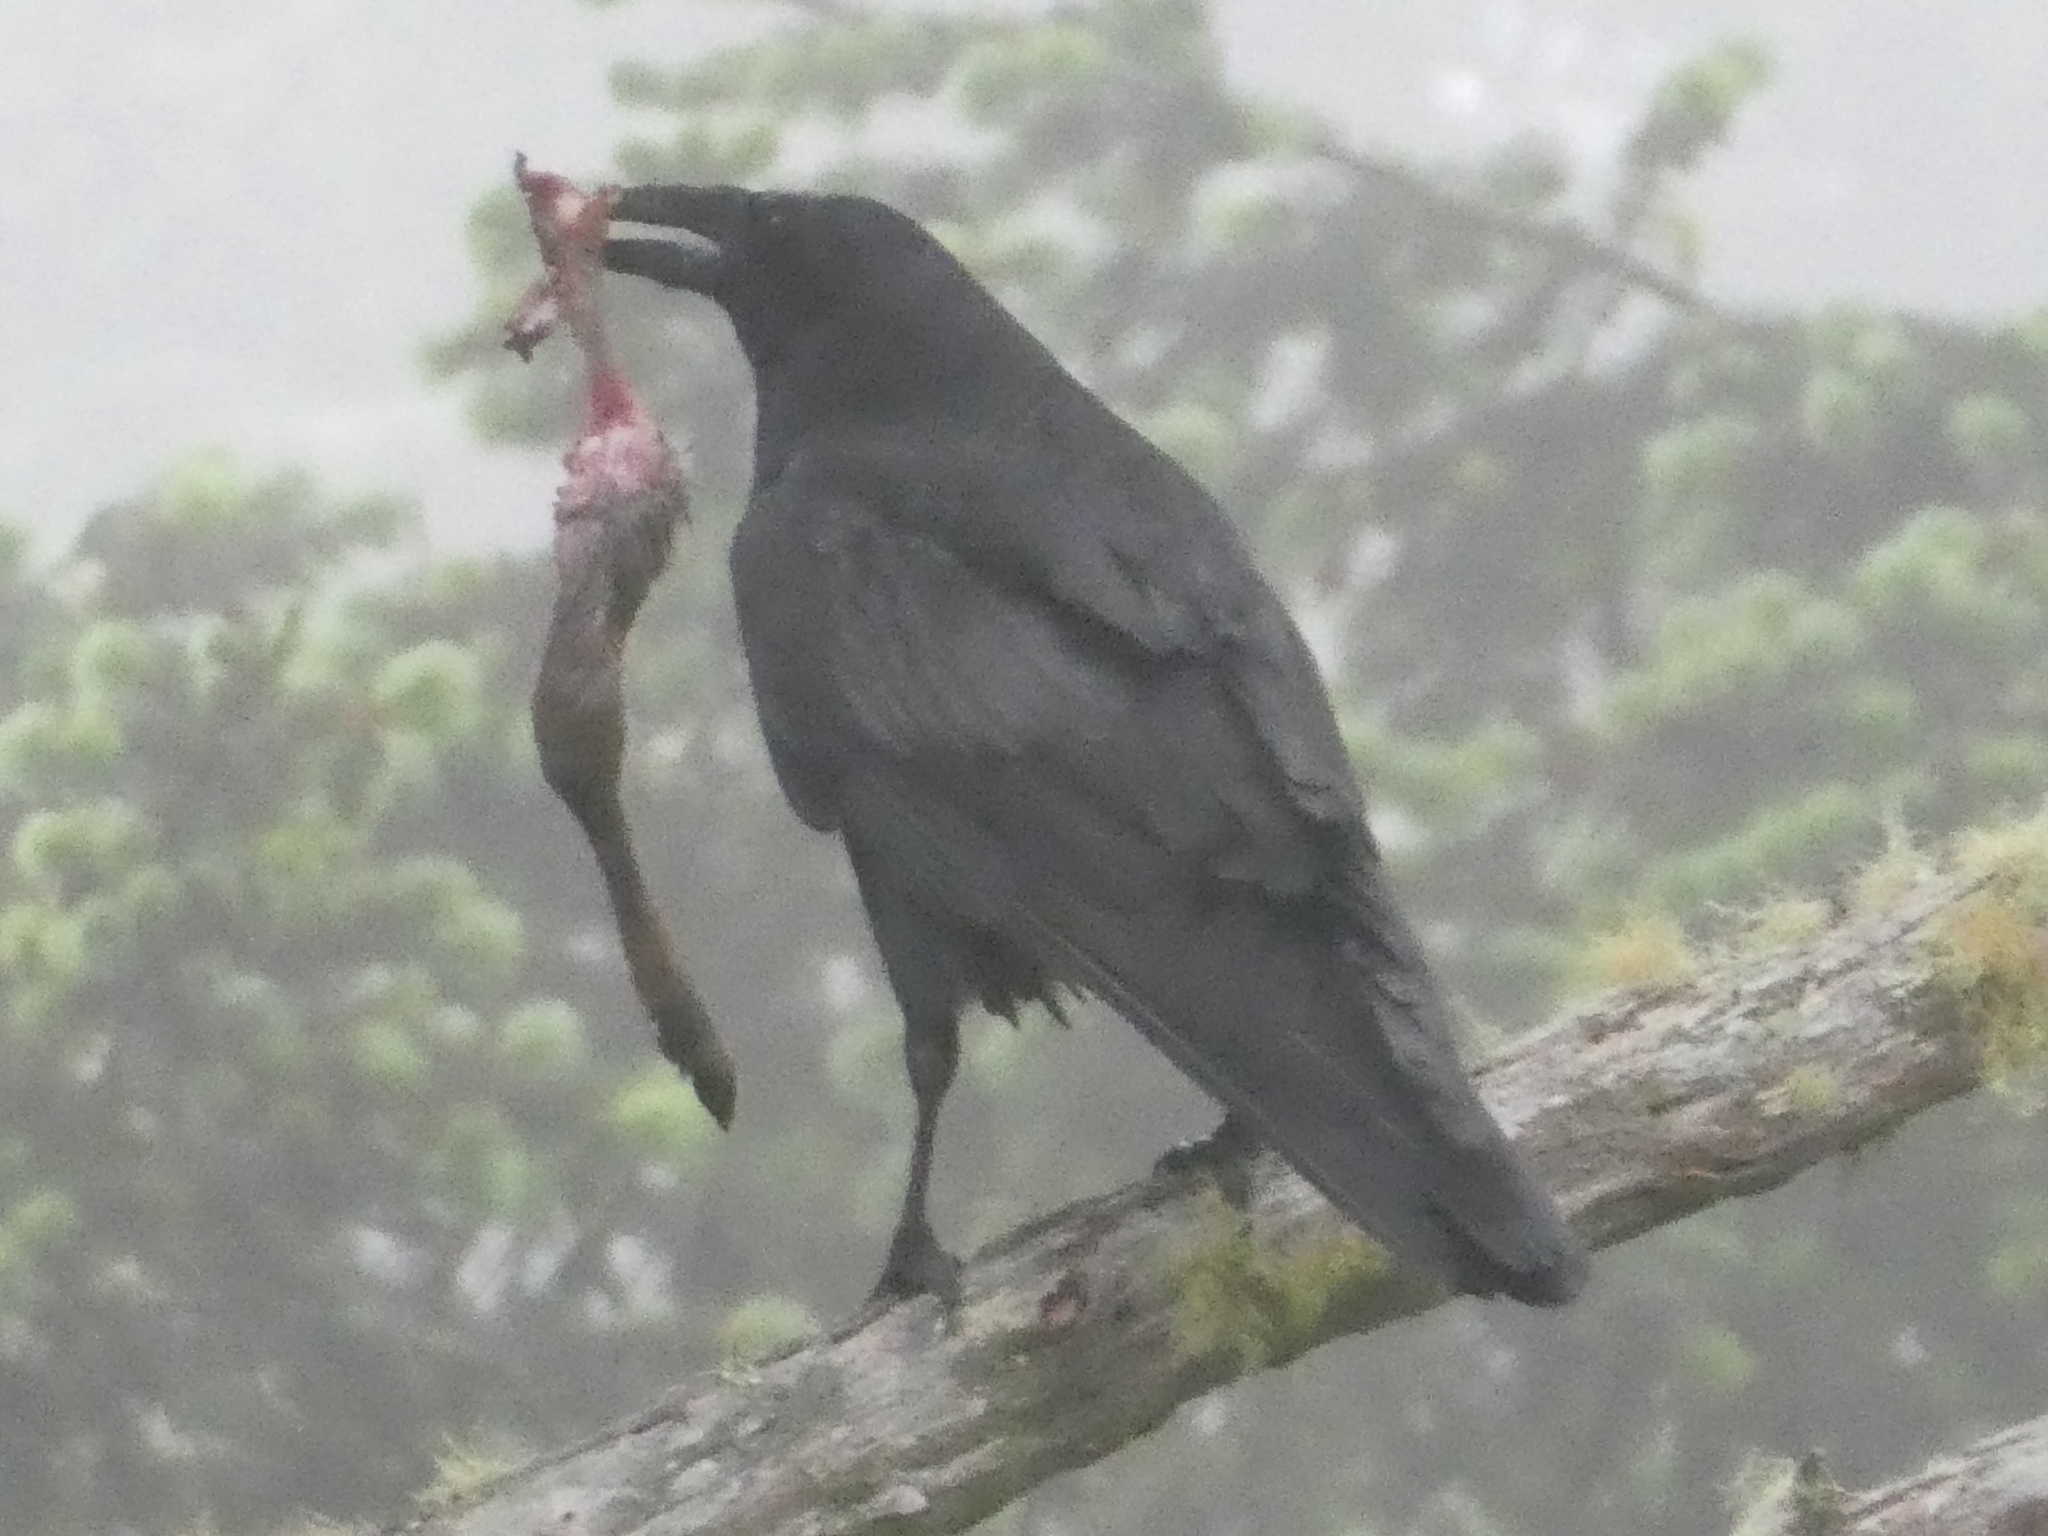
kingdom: Animalia
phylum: Chordata
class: Aves
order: Passeriformes
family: Corvidae
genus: Corvus
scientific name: Corvus corax
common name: Common raven
